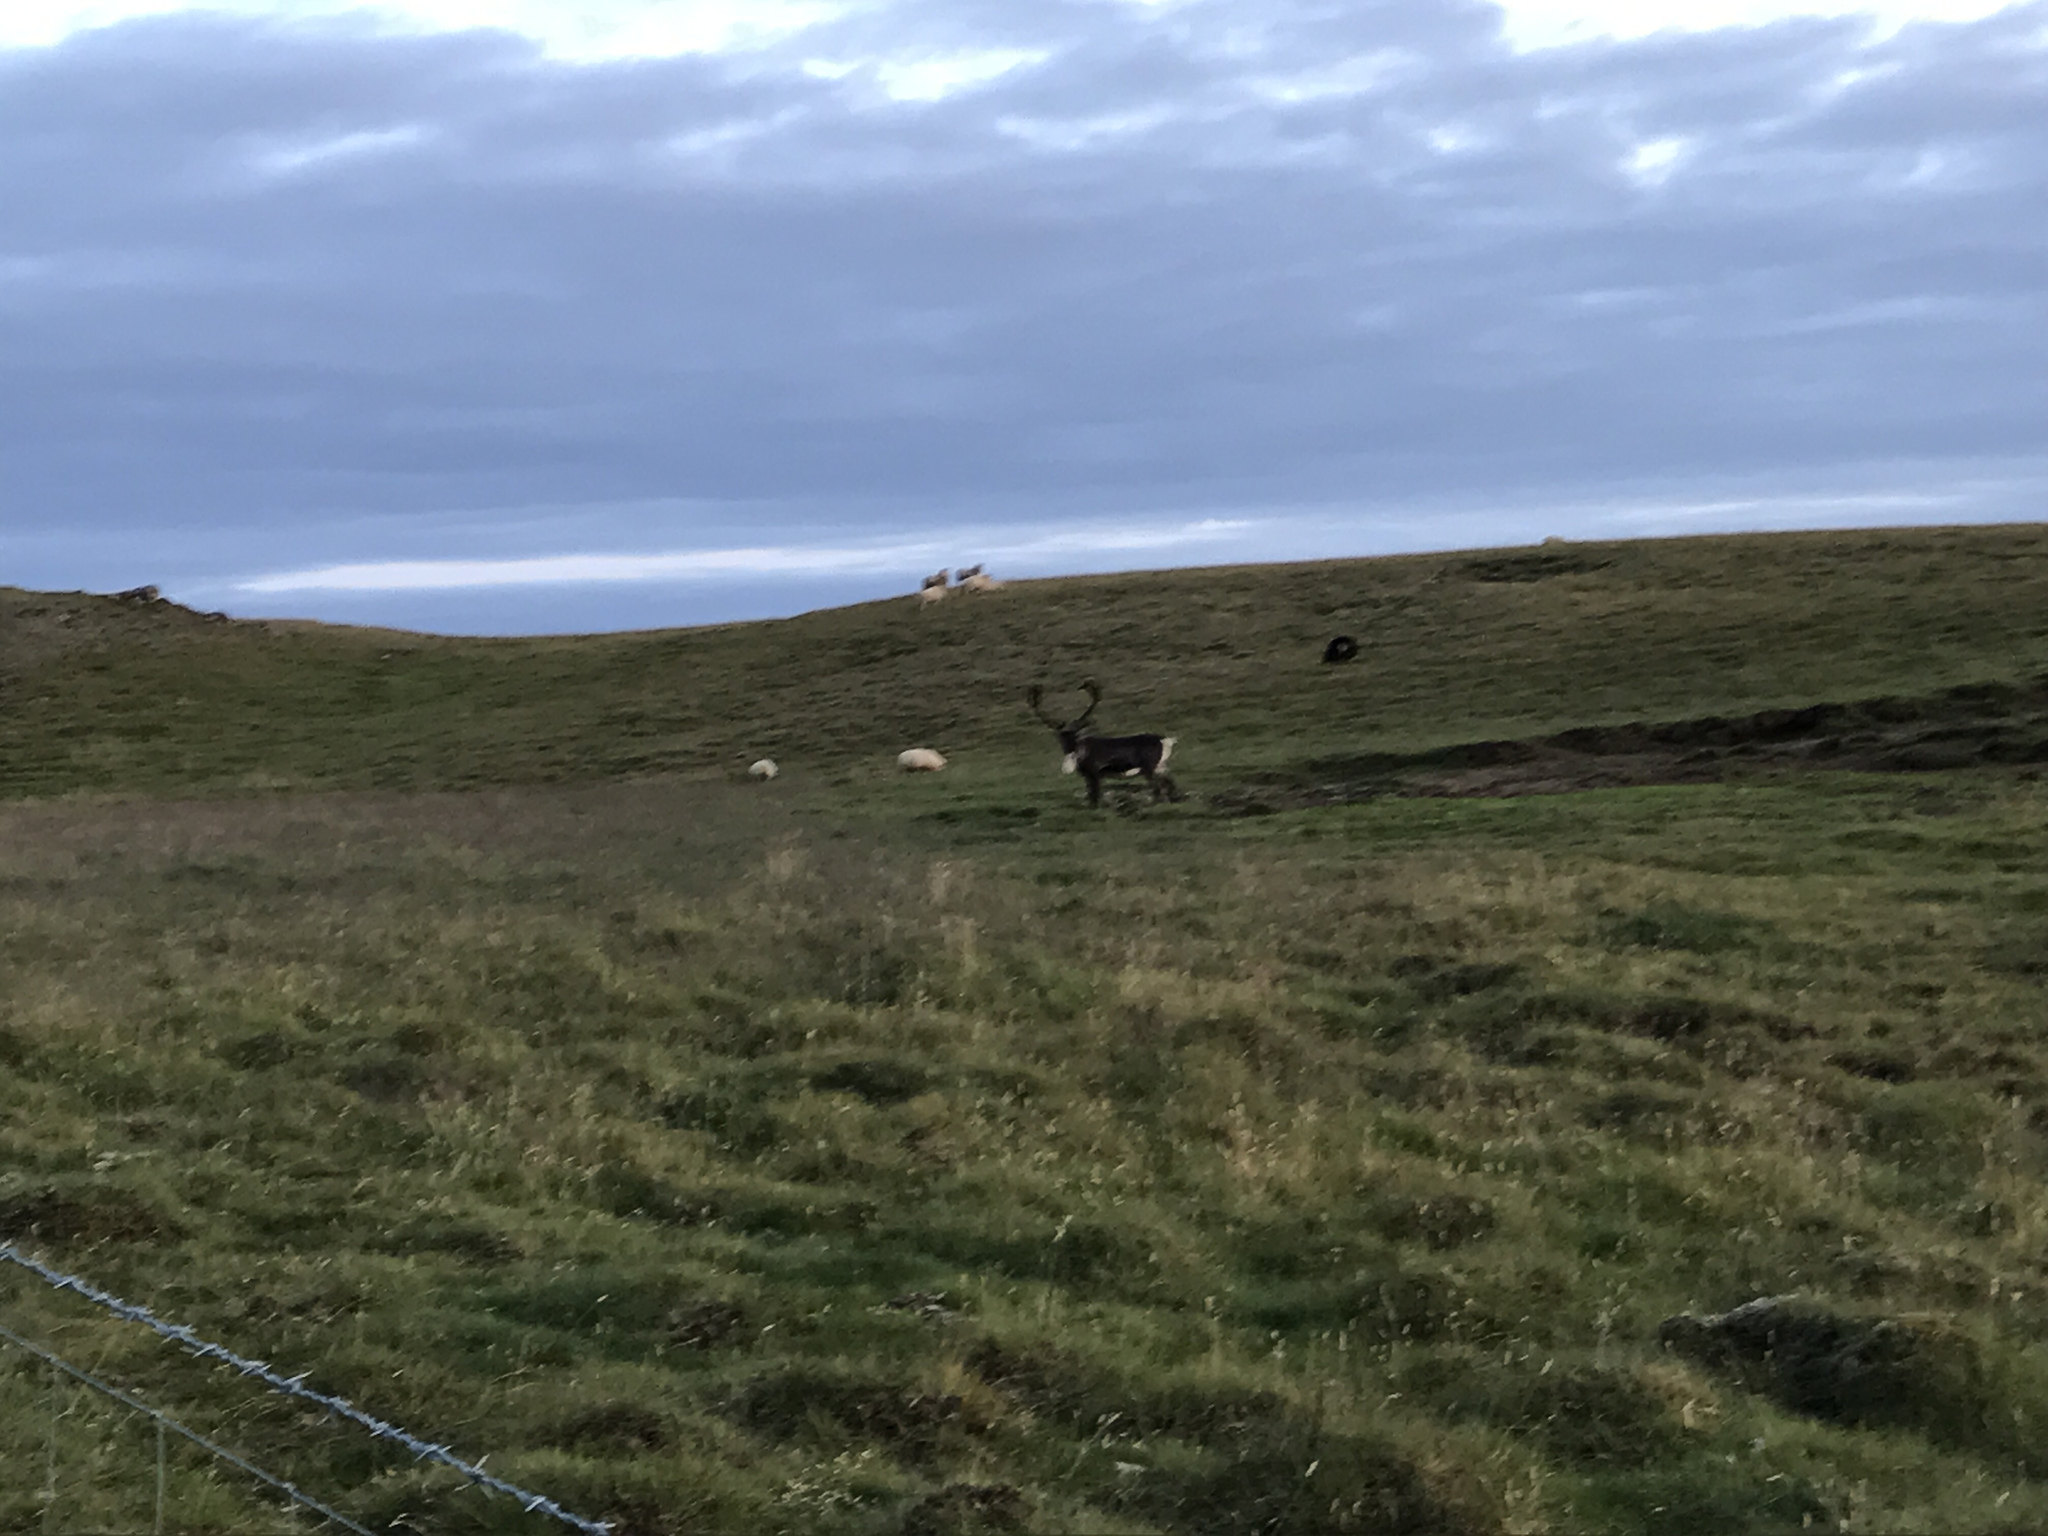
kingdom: Animalia
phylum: Chordata
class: Mammalia
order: Artiodactyla
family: Cervidae
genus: Rangifer
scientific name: Rangifer tarandus
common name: Reindeer
